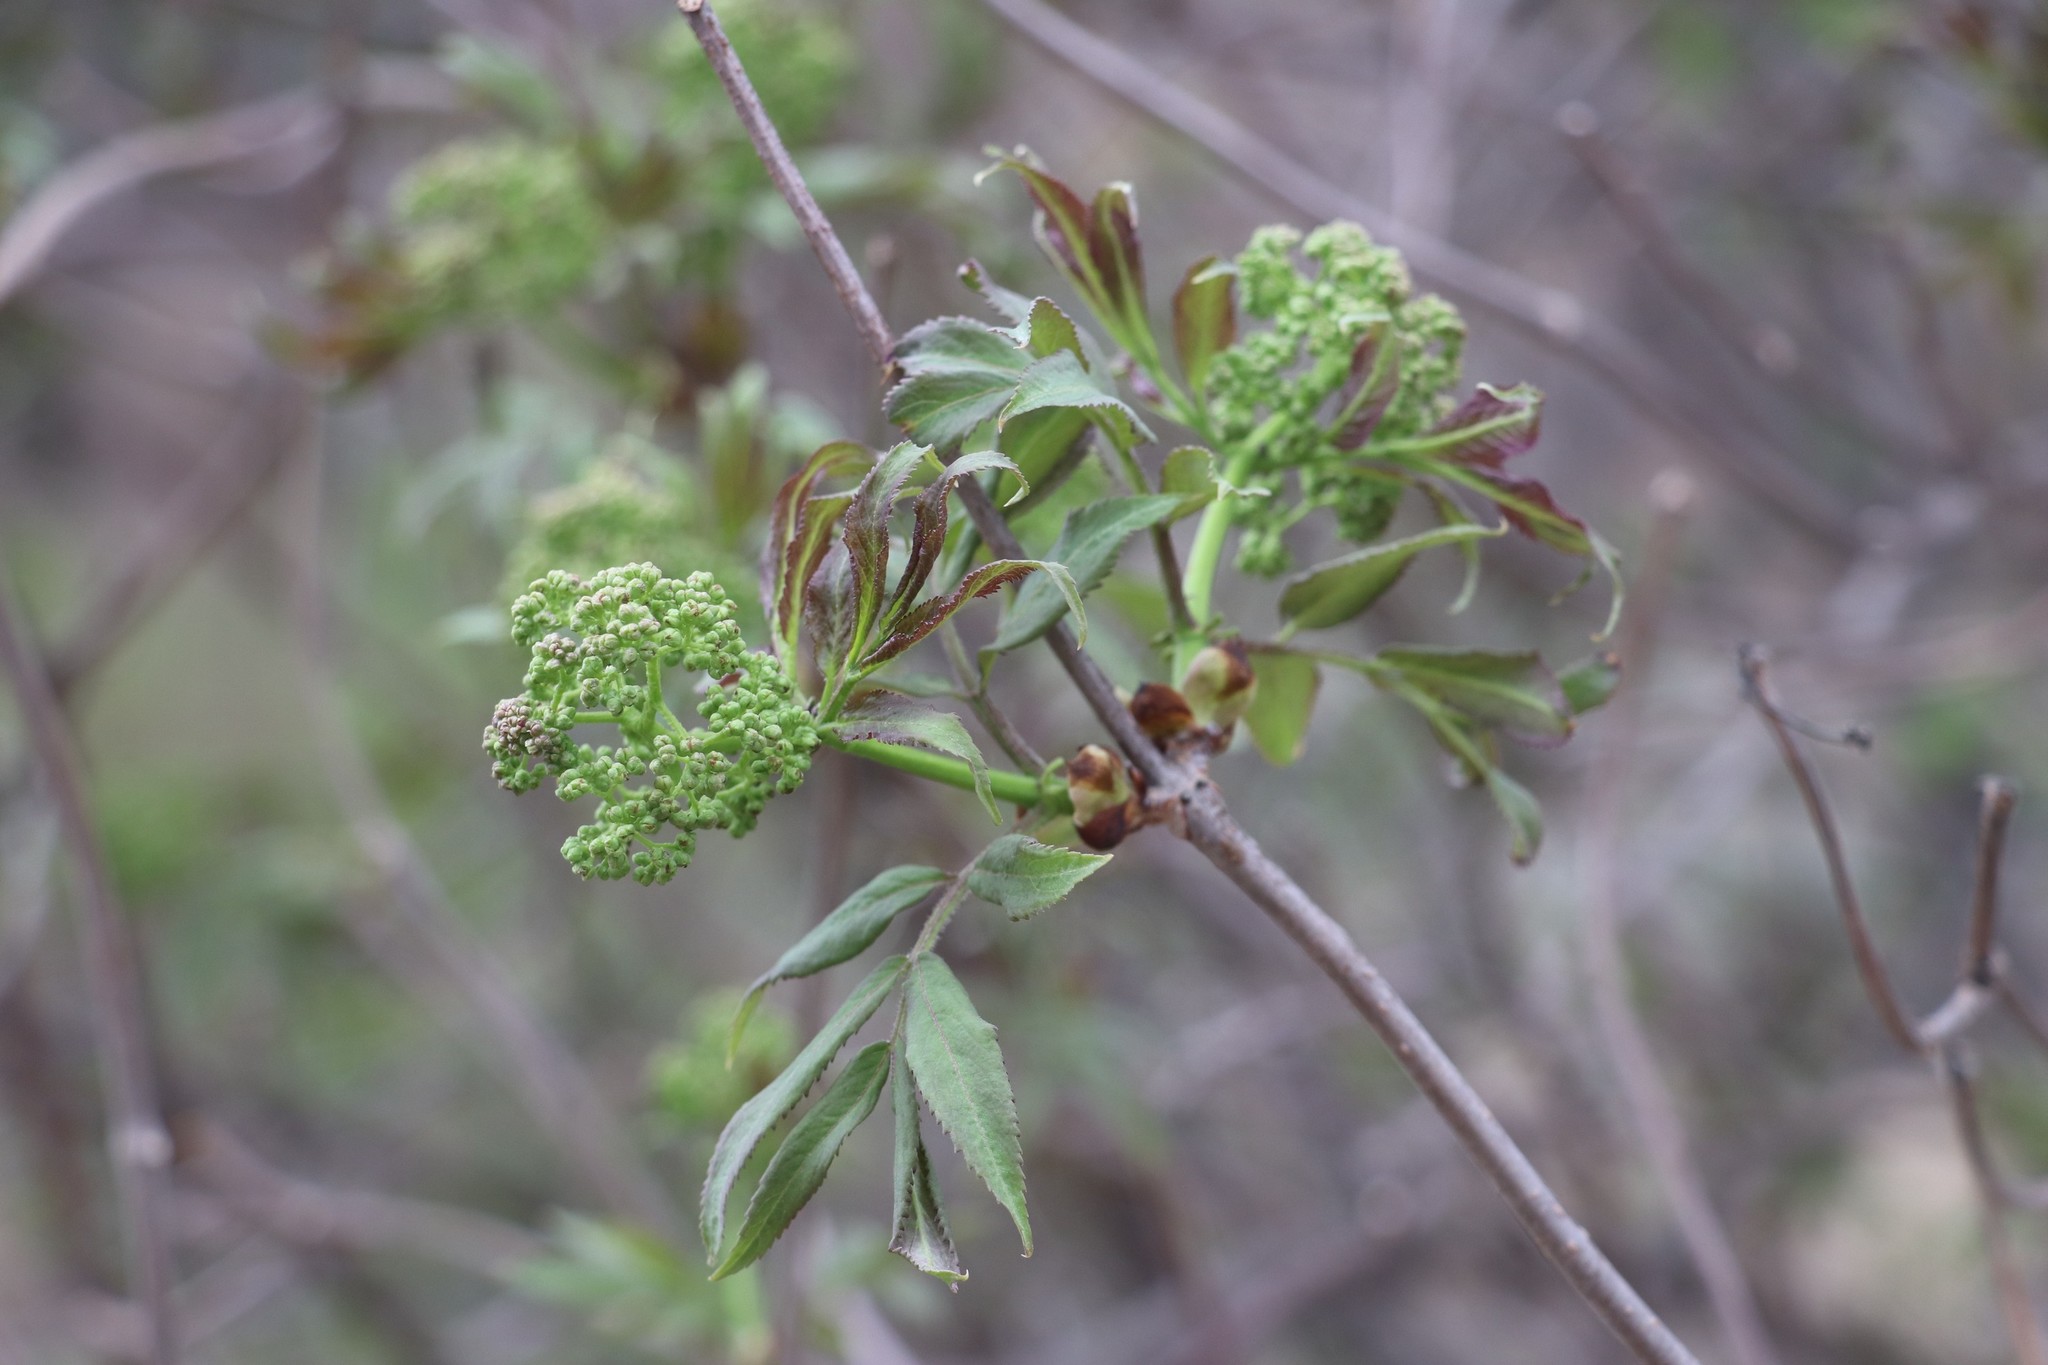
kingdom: Plantae
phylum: Tracheophyta
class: Magnoliopsida
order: Dipsacales
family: Viburnaceae
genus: Sambucus
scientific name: Sambucus sibirica
